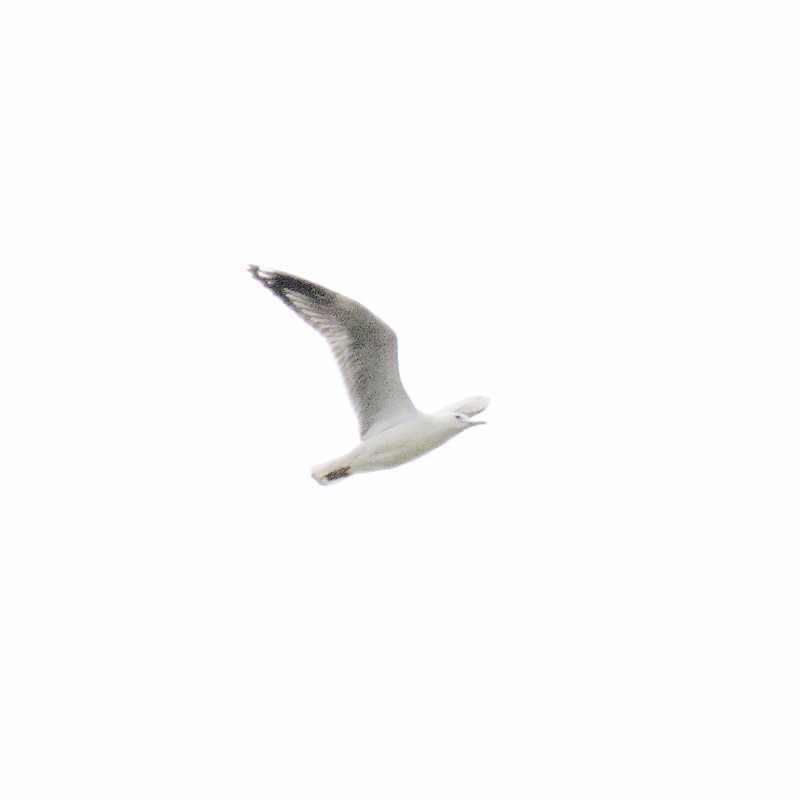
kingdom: Animalia
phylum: Chordata
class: Aves
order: Charadriiformes
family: Laridae
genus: Chroicocephalus
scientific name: Chroicocephalus novaehollandiae
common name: Silver gull
